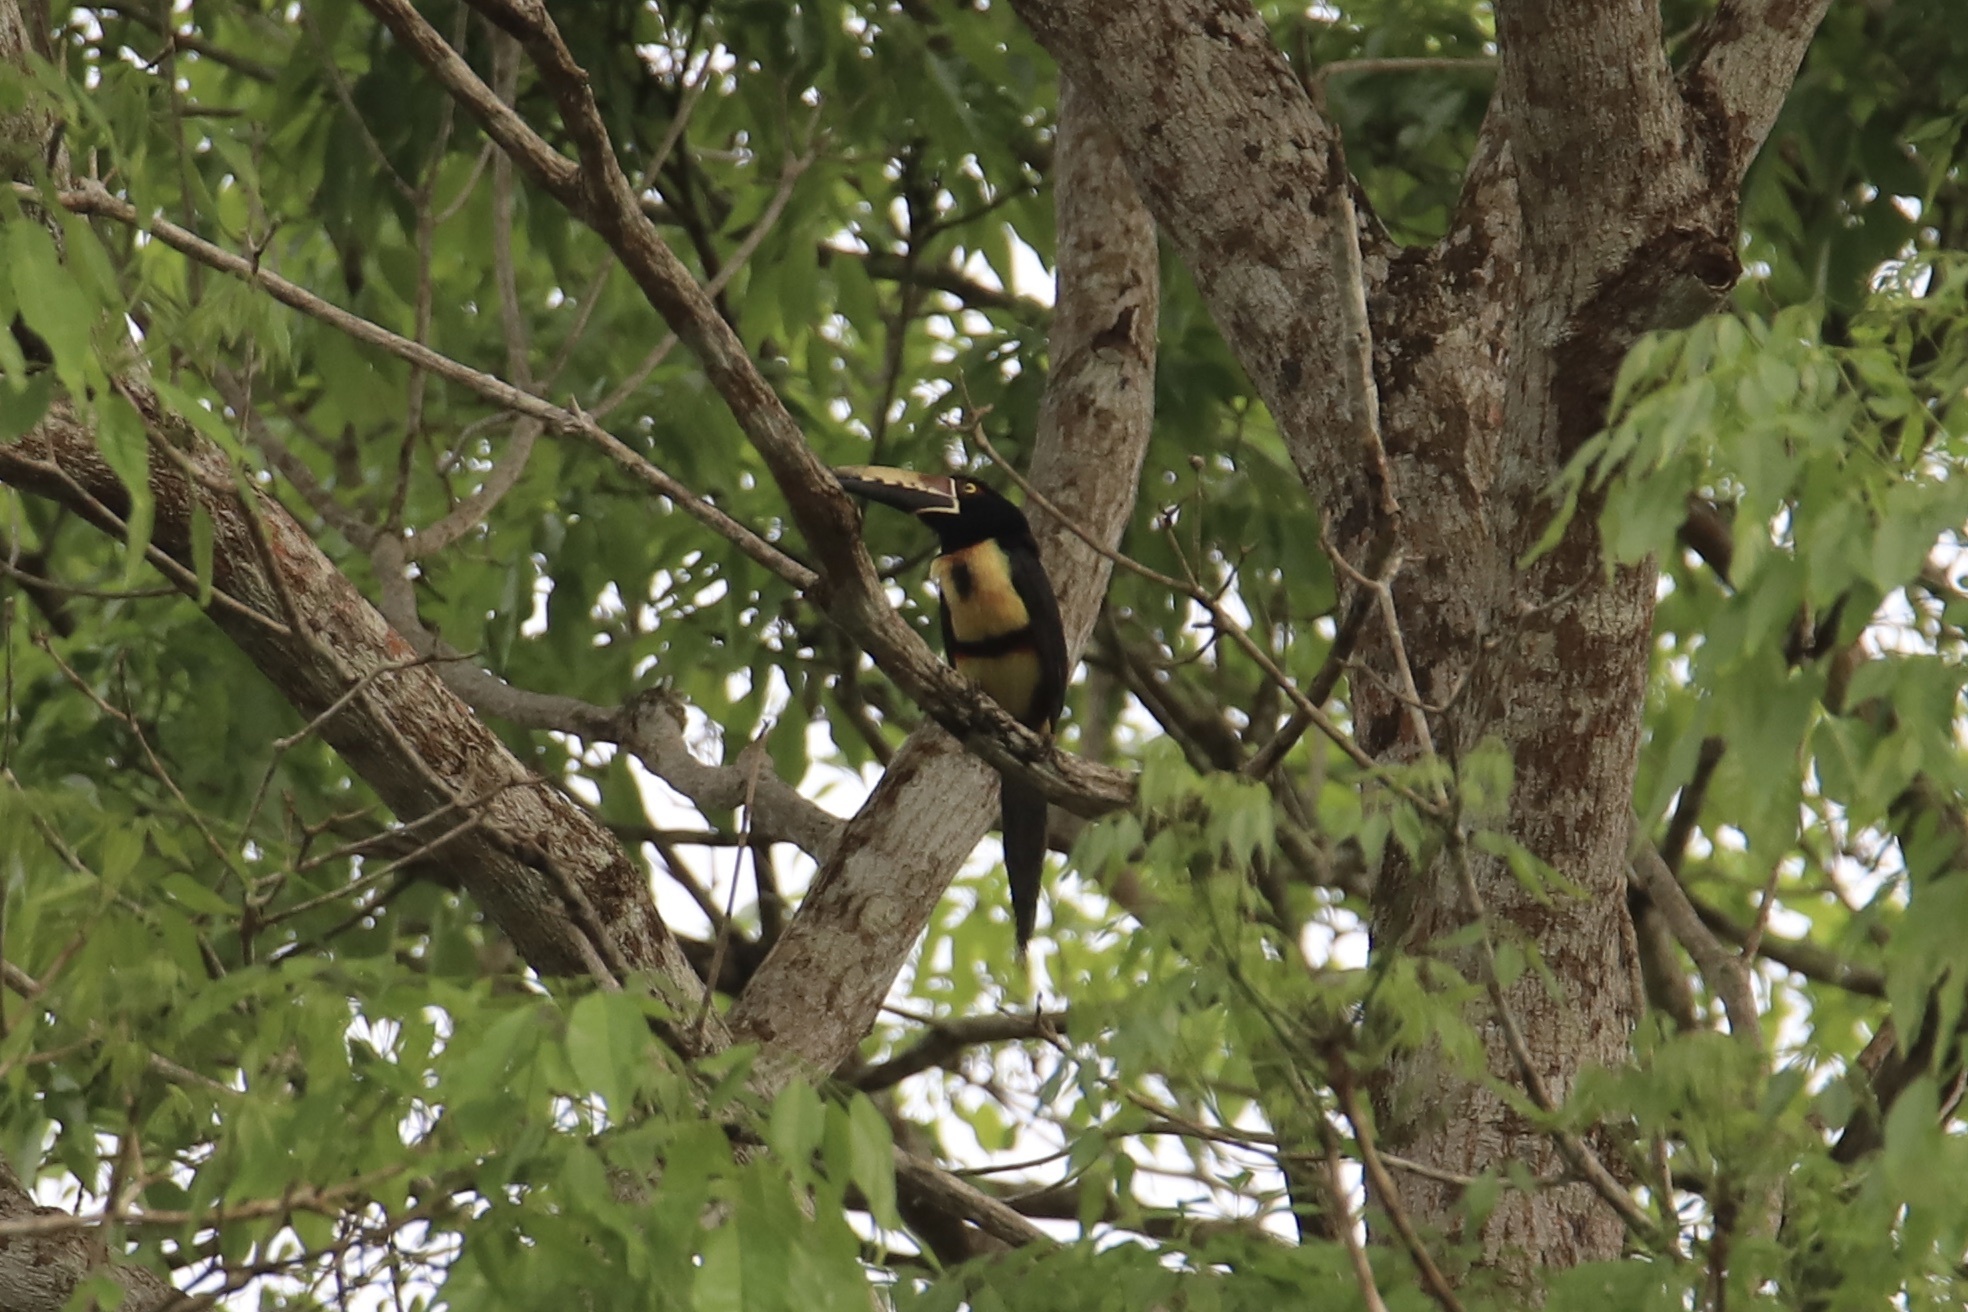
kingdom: Animalia
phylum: Chordata
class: Aves
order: Piciformes
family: Ramphastidae
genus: Pteroglossus
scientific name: Pteroglossus torquatus
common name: Collared aracari
